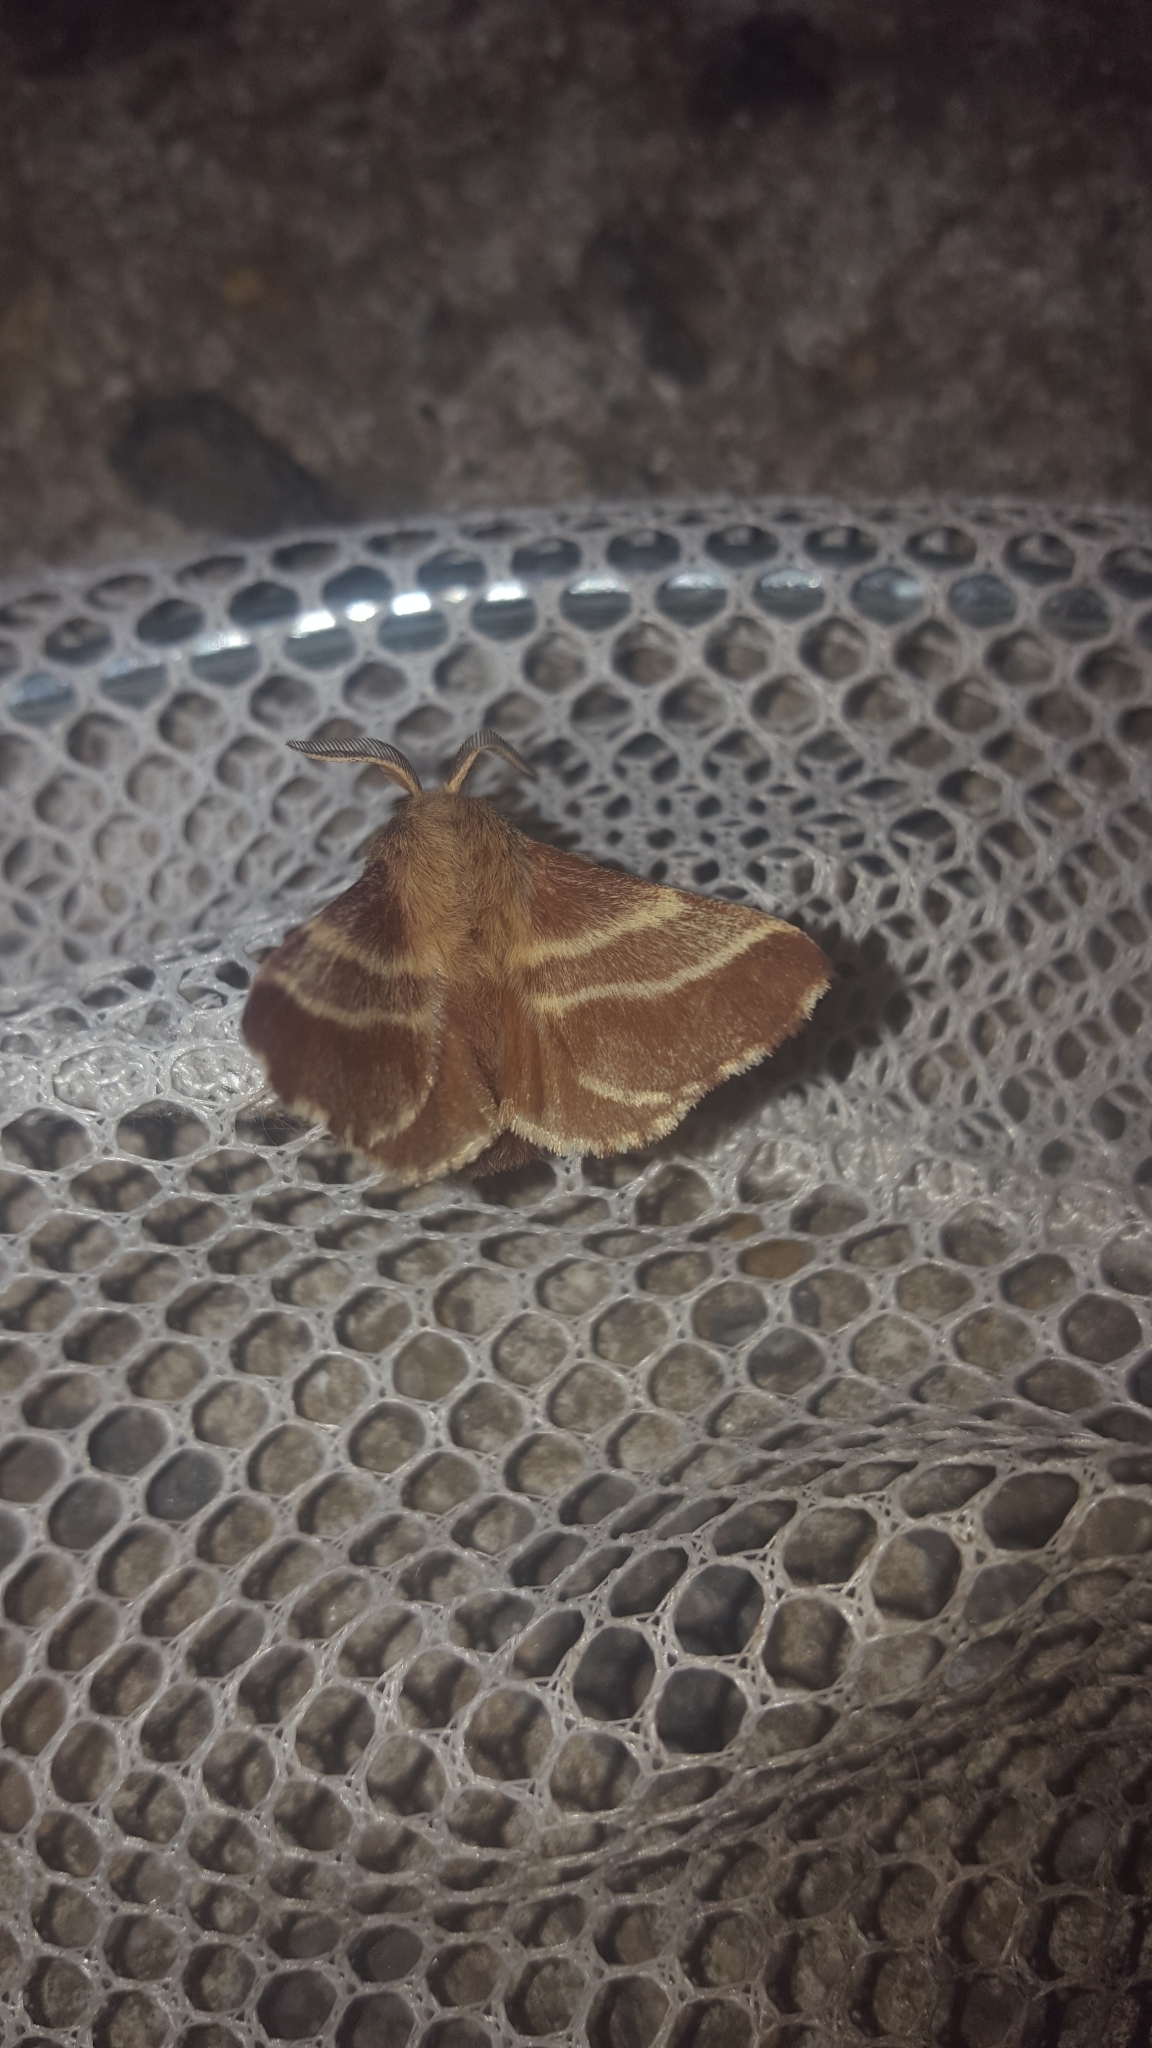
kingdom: Animalia
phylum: Arthropoda
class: Insecta
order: Lepidoptera
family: Lasiocampidae
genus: Malacosoma
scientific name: Malacosoma americana
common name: Eastern tent caterpillar moth
